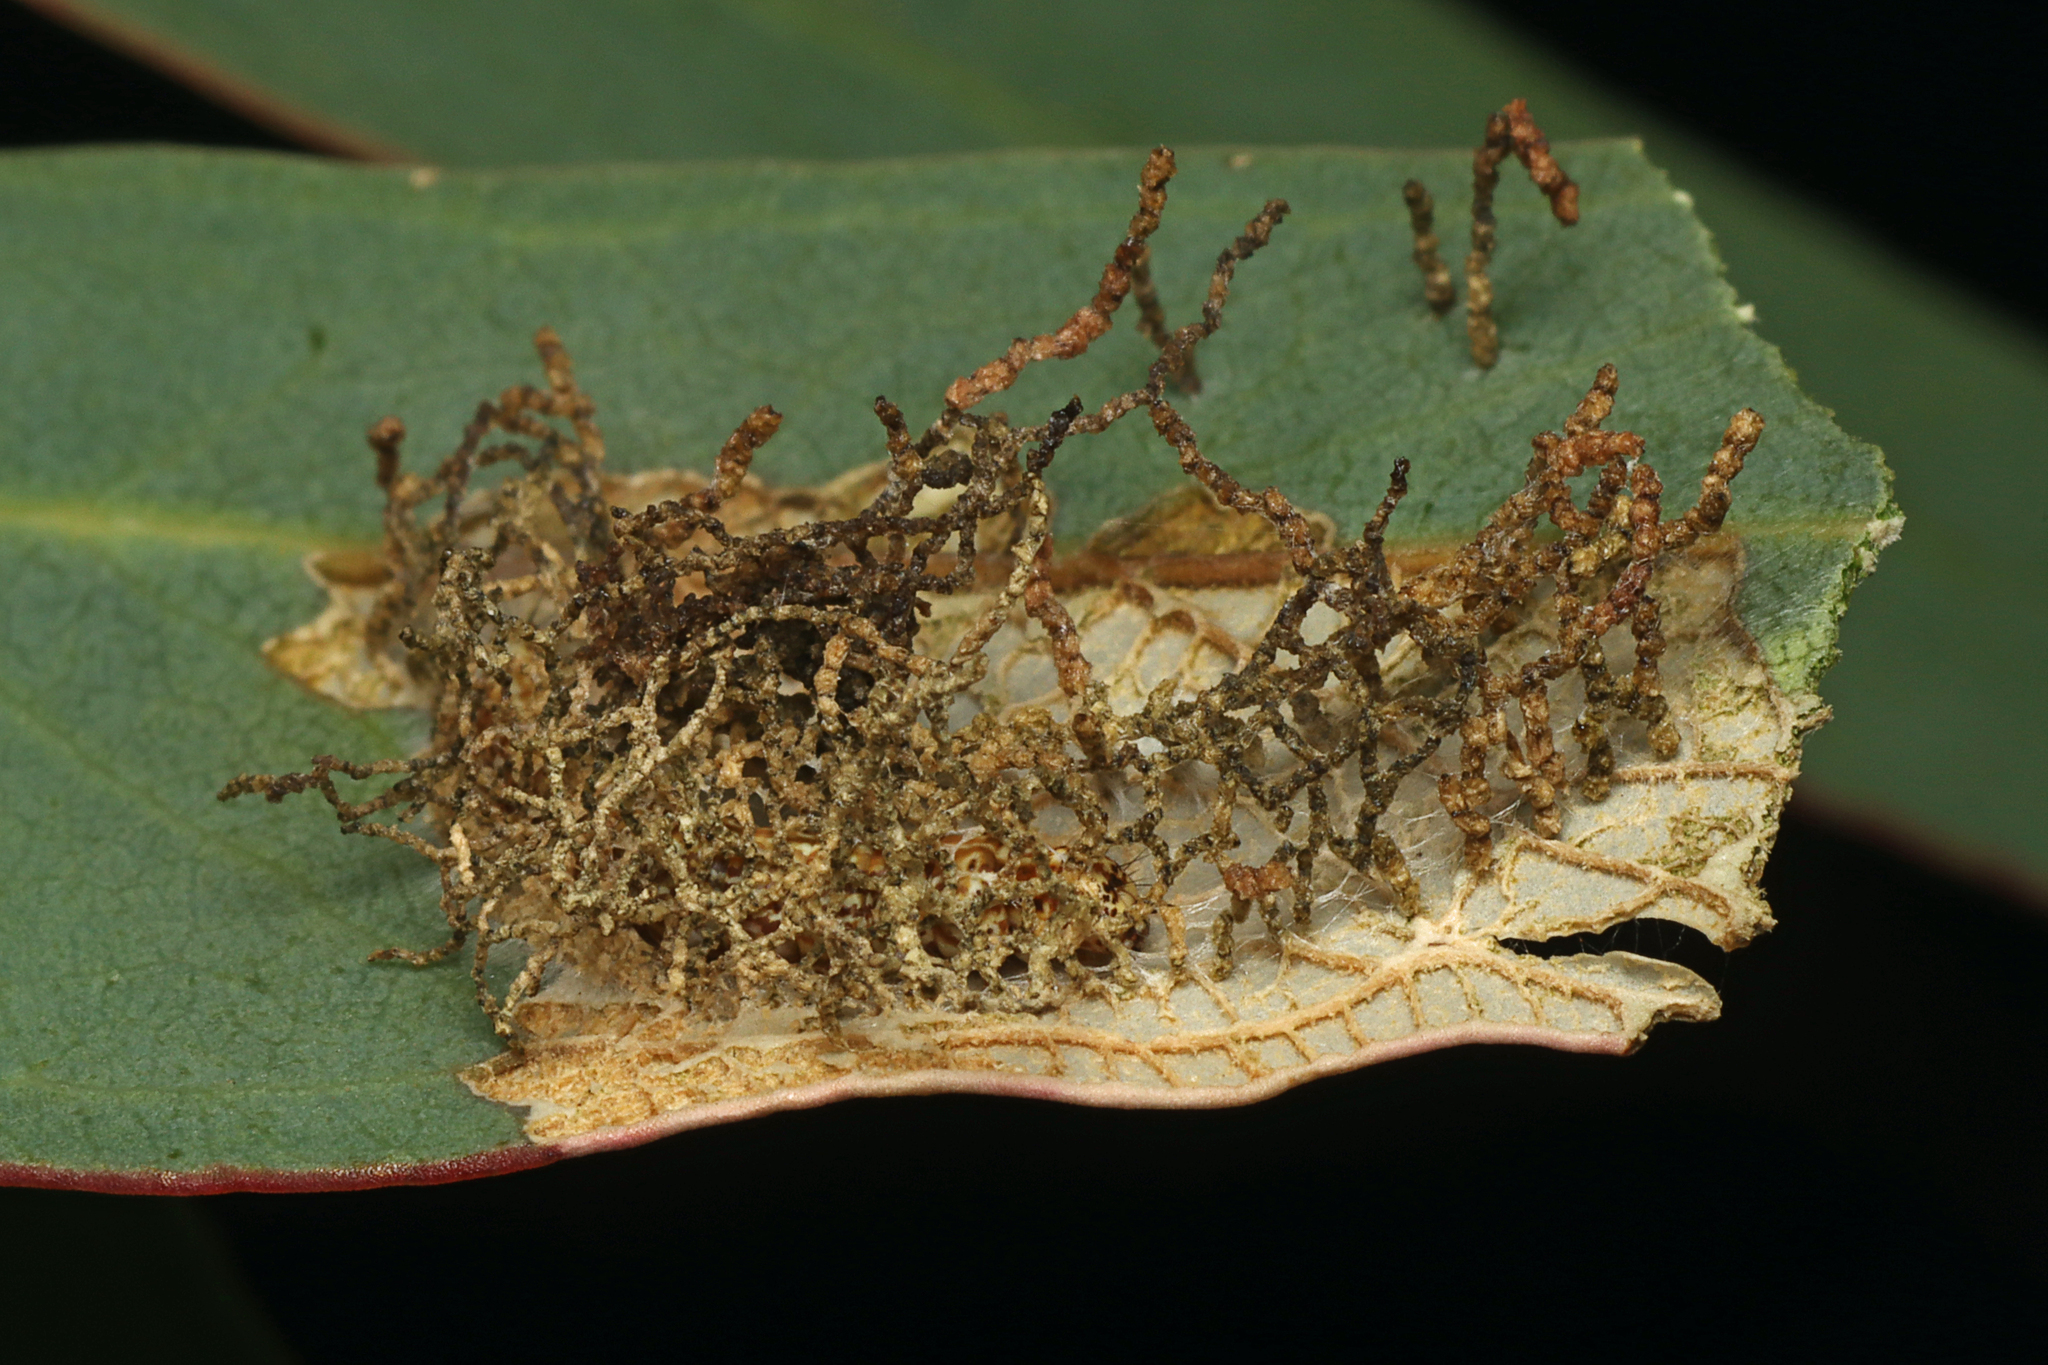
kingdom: Animalia
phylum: Arthropoda
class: Insecta
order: Lepidoptera
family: Depressariidae
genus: Hypertropha
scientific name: Hypertropha tortriciformis
